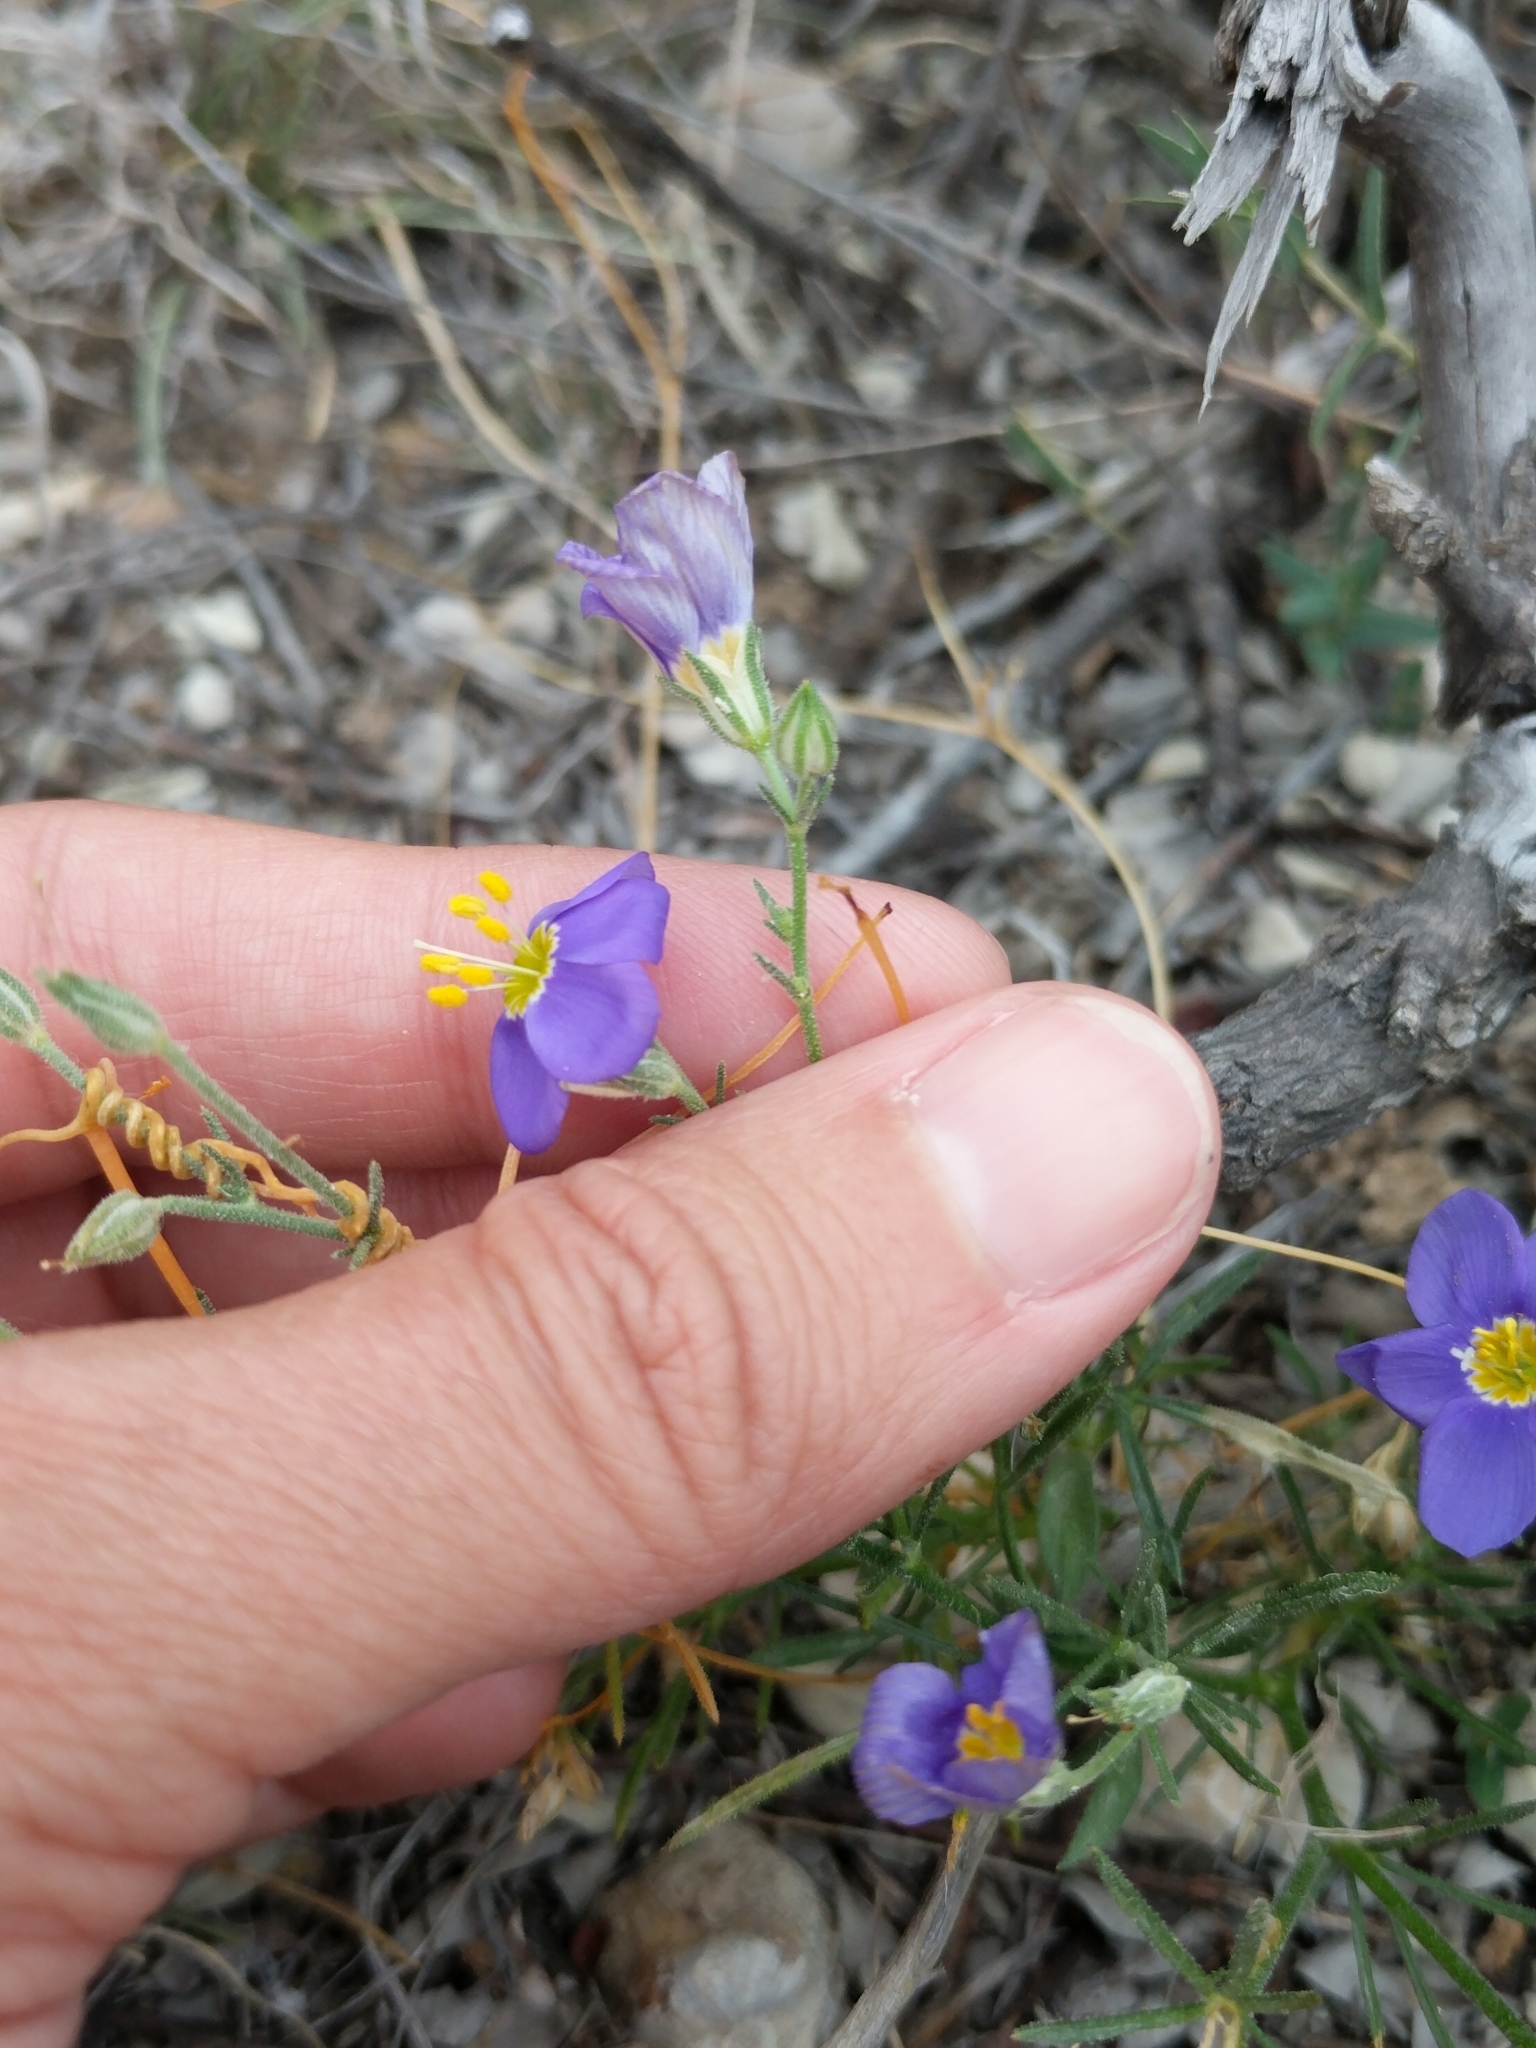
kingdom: Plantae
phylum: Tracheophyta
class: Magnoliopsida
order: Ericales
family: Polemoniaceae
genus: Giliastrum
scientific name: Giliastrum rigidulum
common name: Bluebowls
